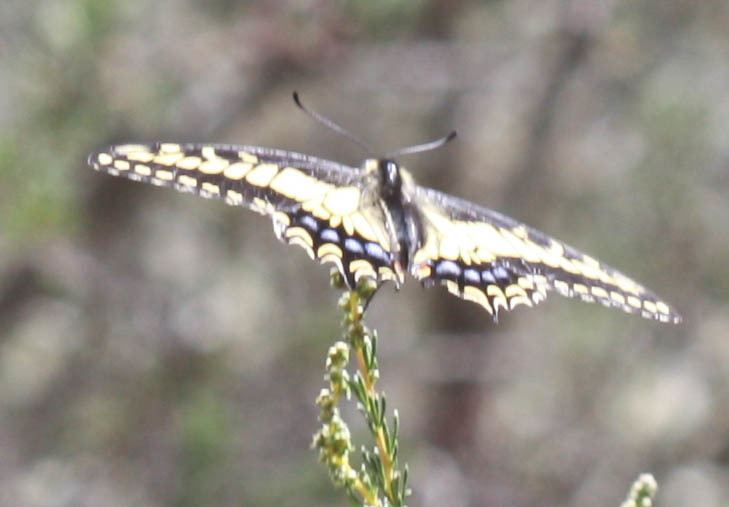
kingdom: Animalia
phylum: Arthropoda
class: Insecta
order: Lepidoptera
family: Papilionidae
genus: Papilio
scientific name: Papilio zelicaon
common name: Anise swallowtail
